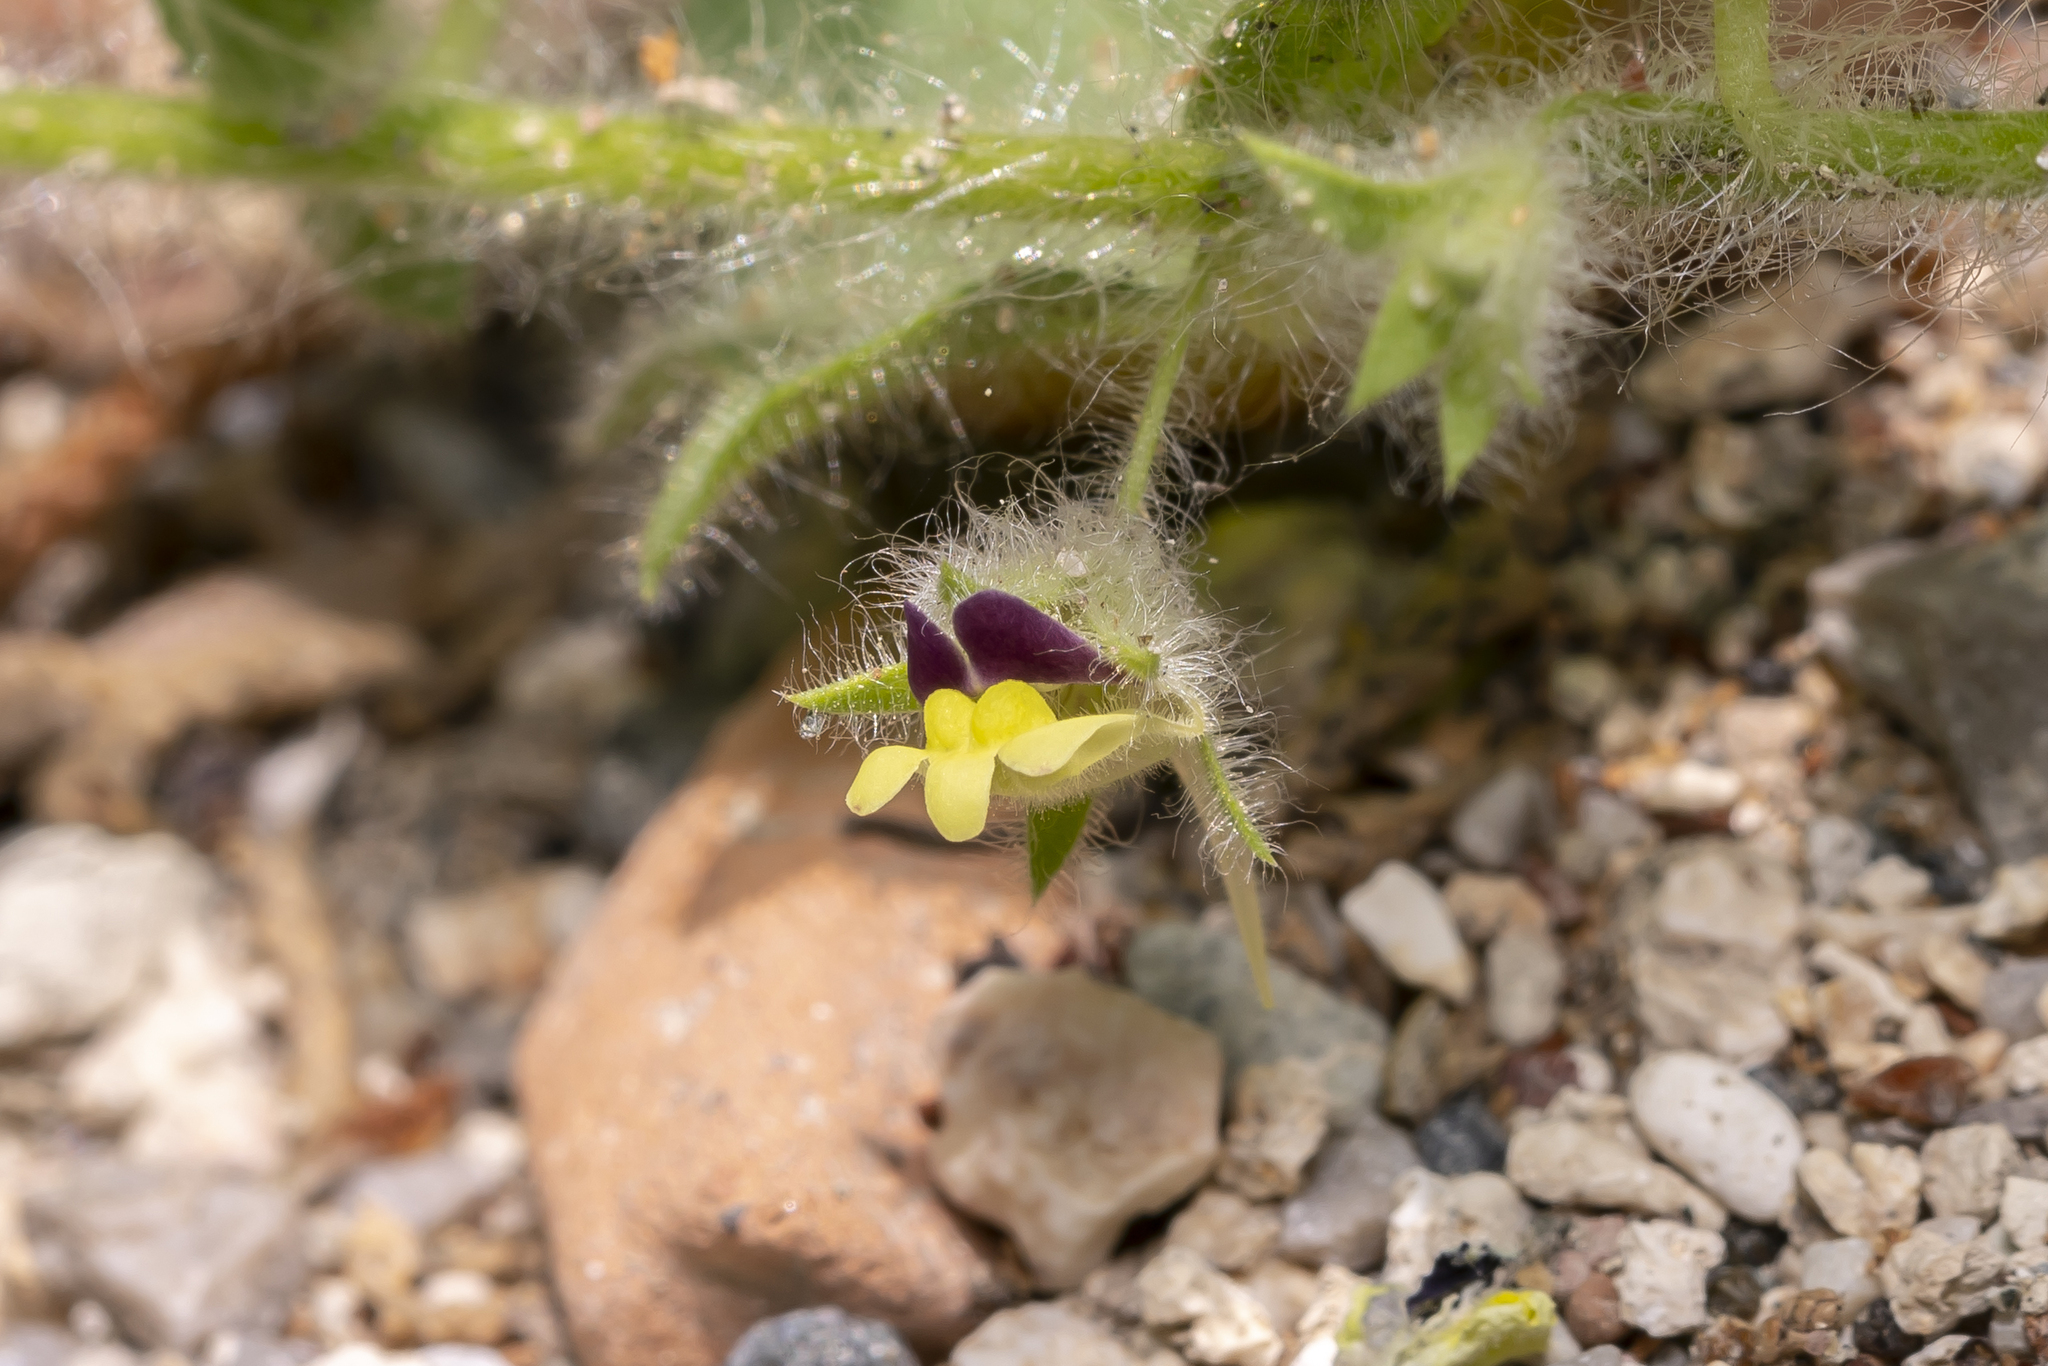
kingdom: Plantae
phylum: Tracheophyta
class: Magnoliopsida
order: Lamiales
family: Plantaginaceae
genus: Kickxia
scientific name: Kickxia elatine
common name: Sharp-leaved fluellen
